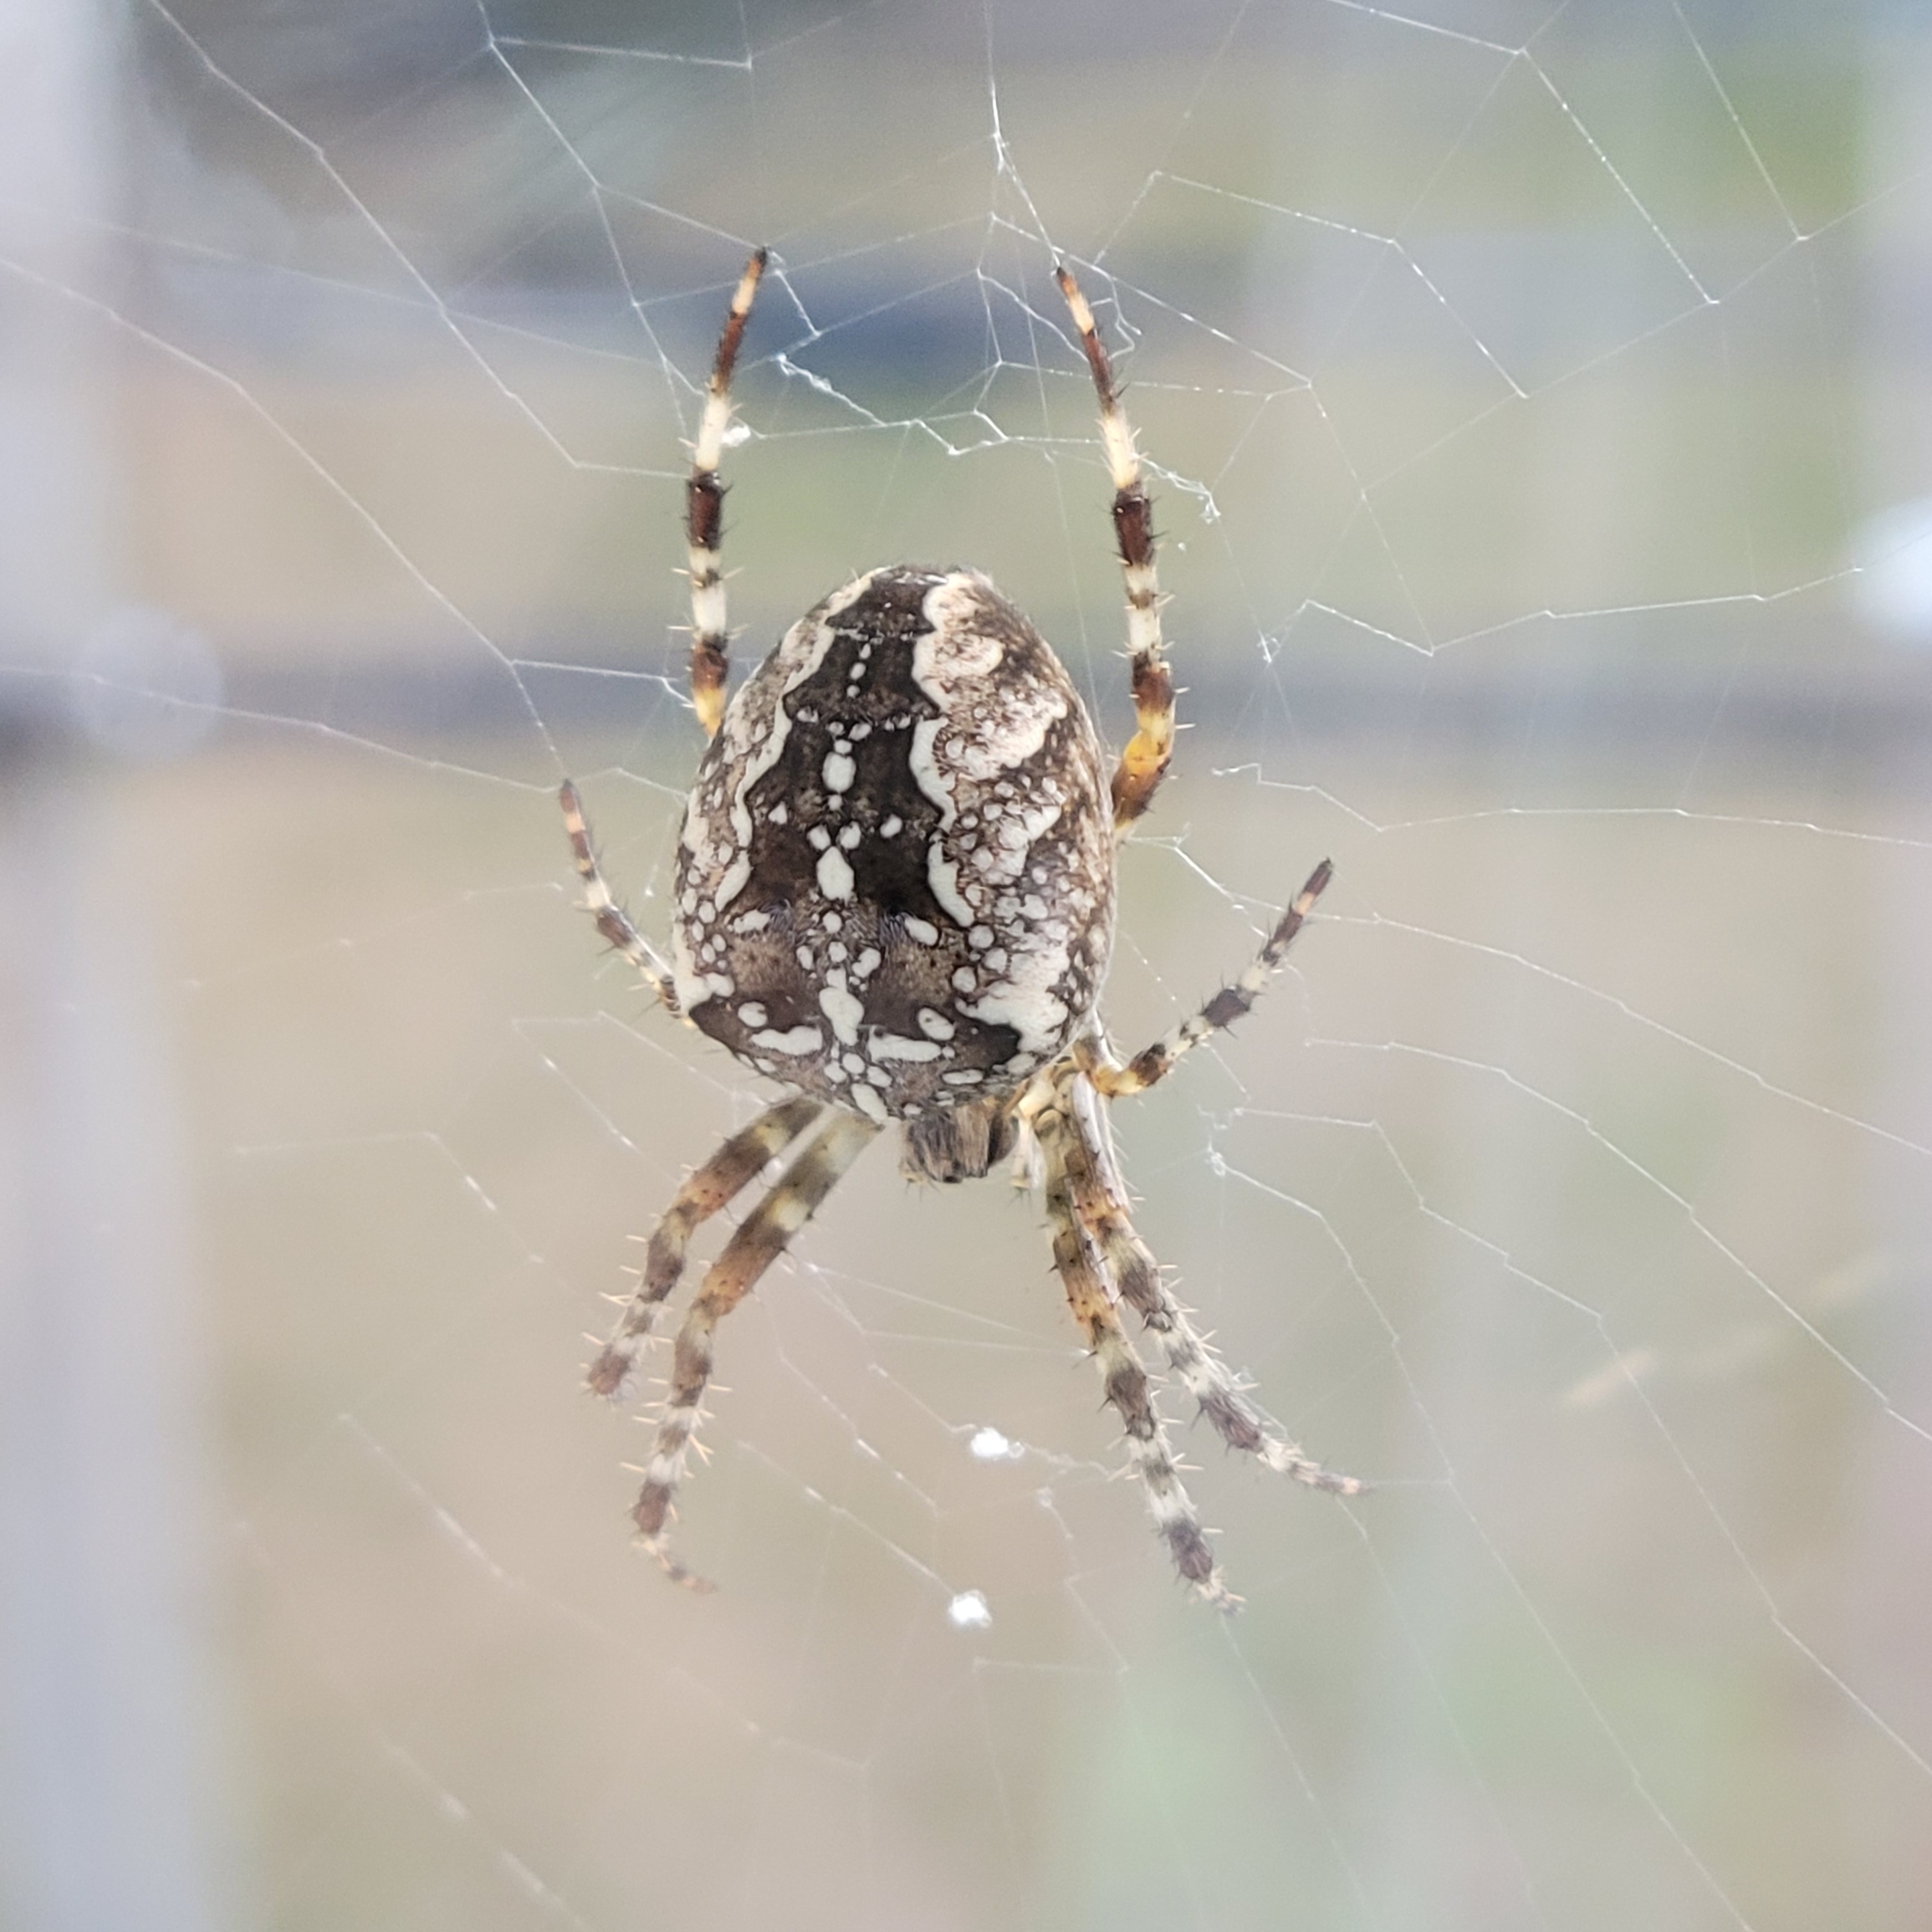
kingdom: Animalia
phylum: Arthropoda
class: Arachnida
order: Araneae
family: Araneidae
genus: Araneus
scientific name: Araneus diadematus
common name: Cross orbweaver
